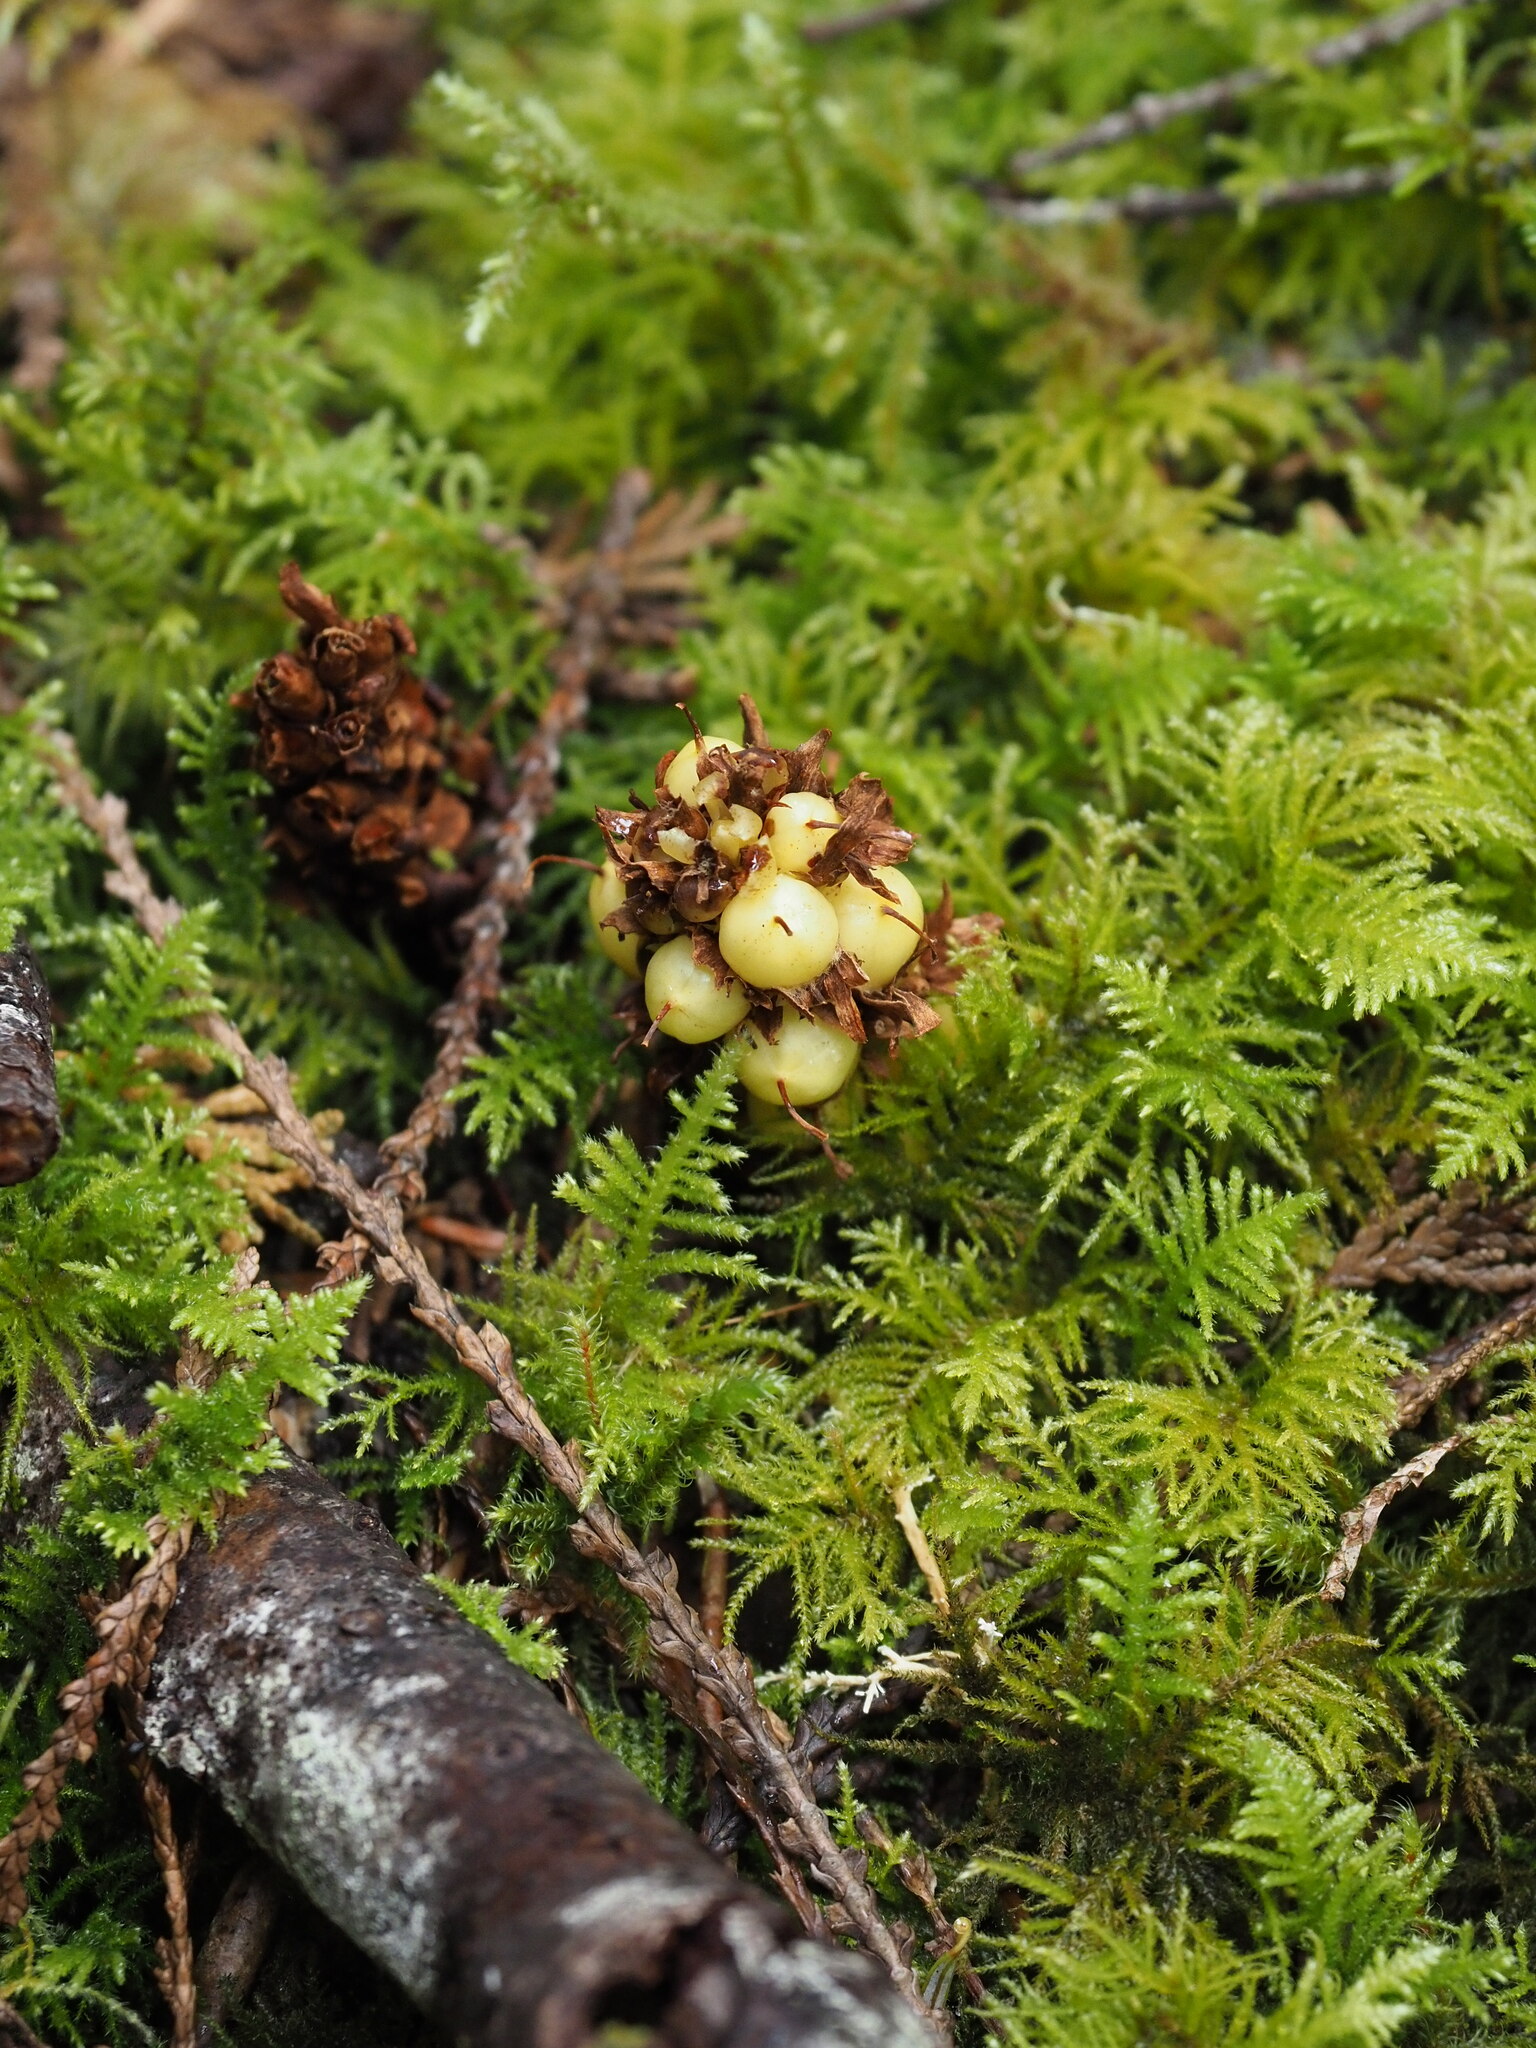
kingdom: Plantae
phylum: Tracheophyta
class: Magnoliopsida
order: Lamiales
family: Orobanchaceae
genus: Kopsiopsis
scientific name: Kopsiopsis hookeri
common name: Hooker's groundcone
